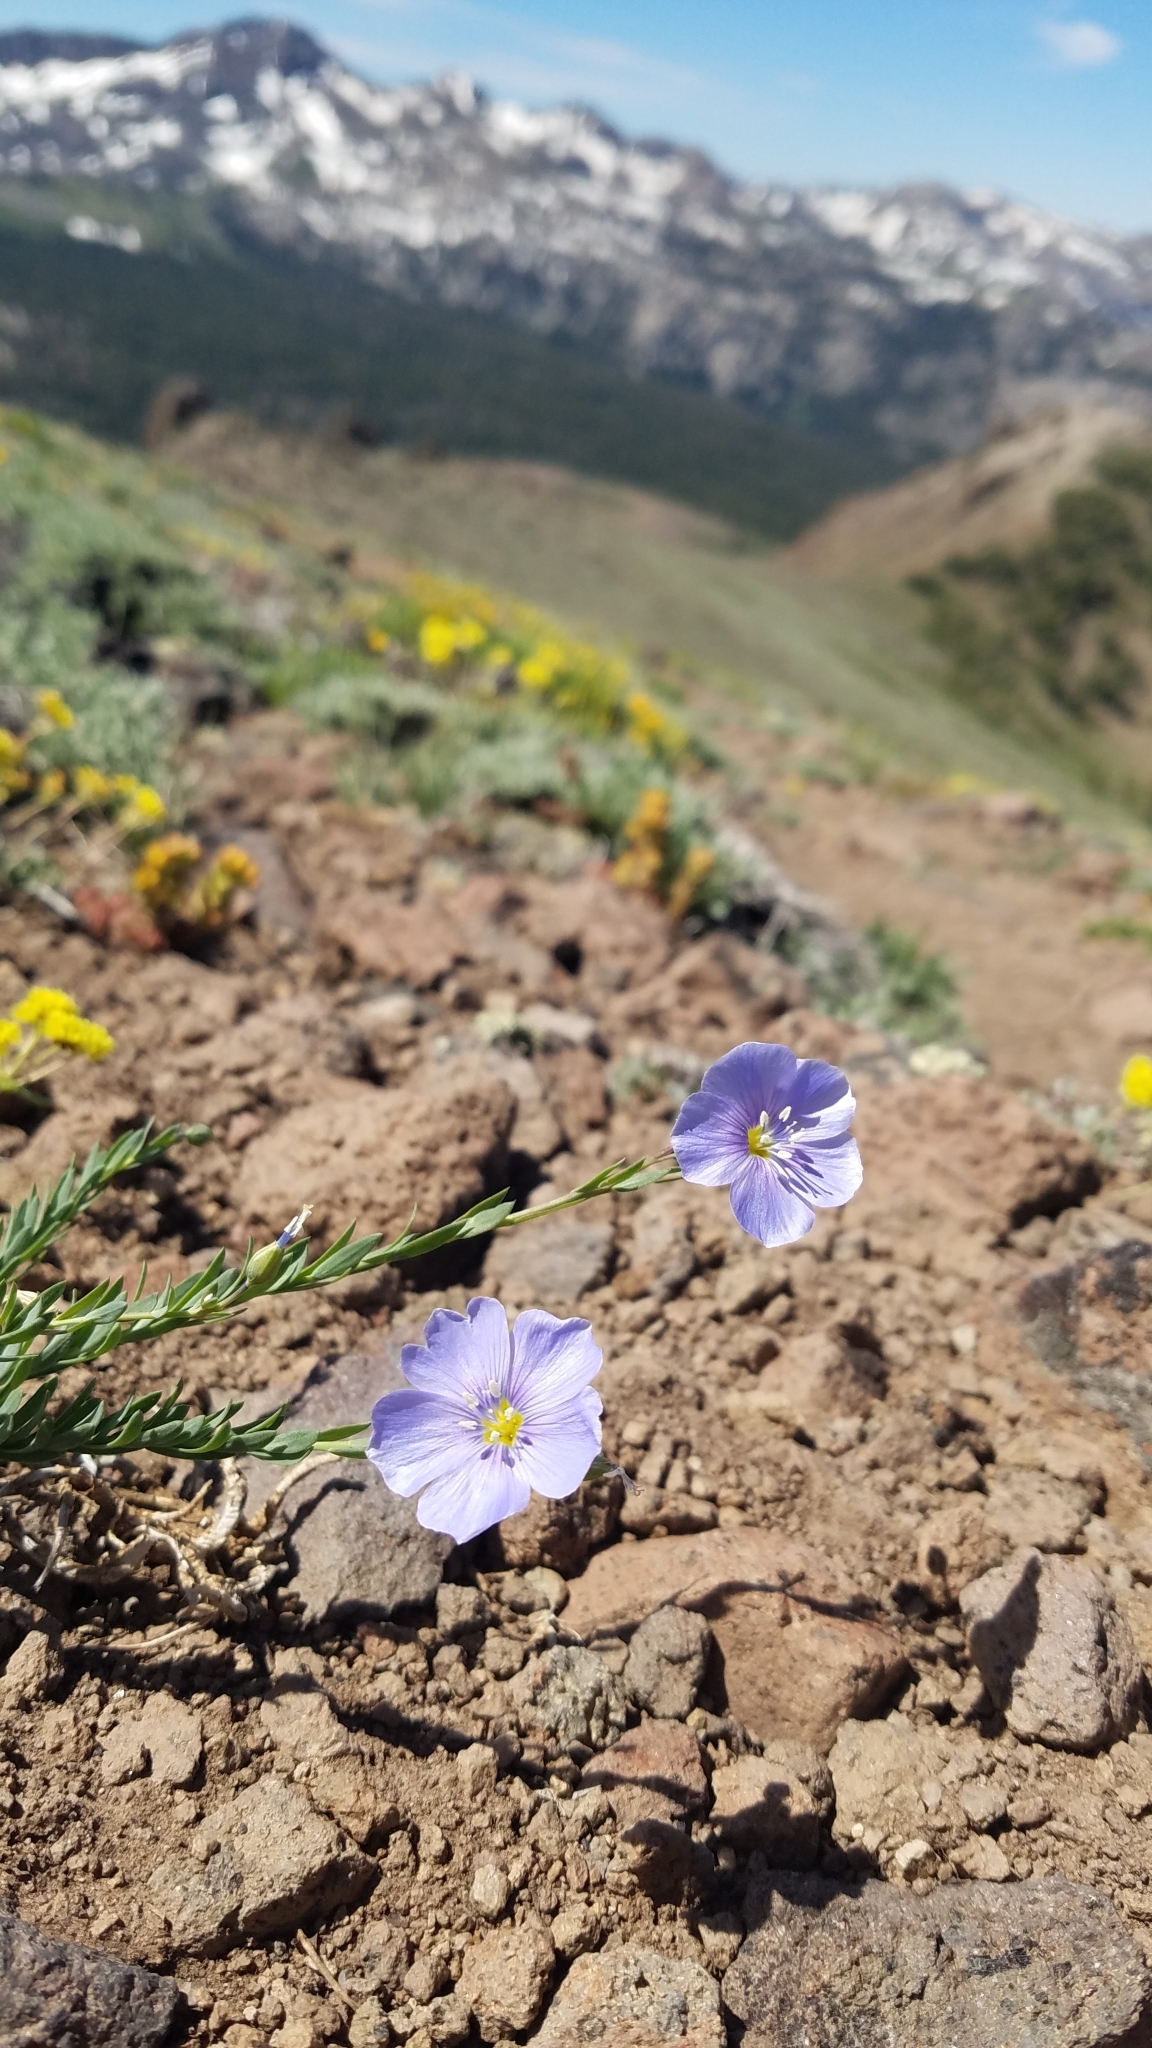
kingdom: Plantae
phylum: Tracheophyta
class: Magnoliopsida
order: Malpighiales
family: Linaceae
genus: Linum
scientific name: Linum lewisii
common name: Prairie flax
